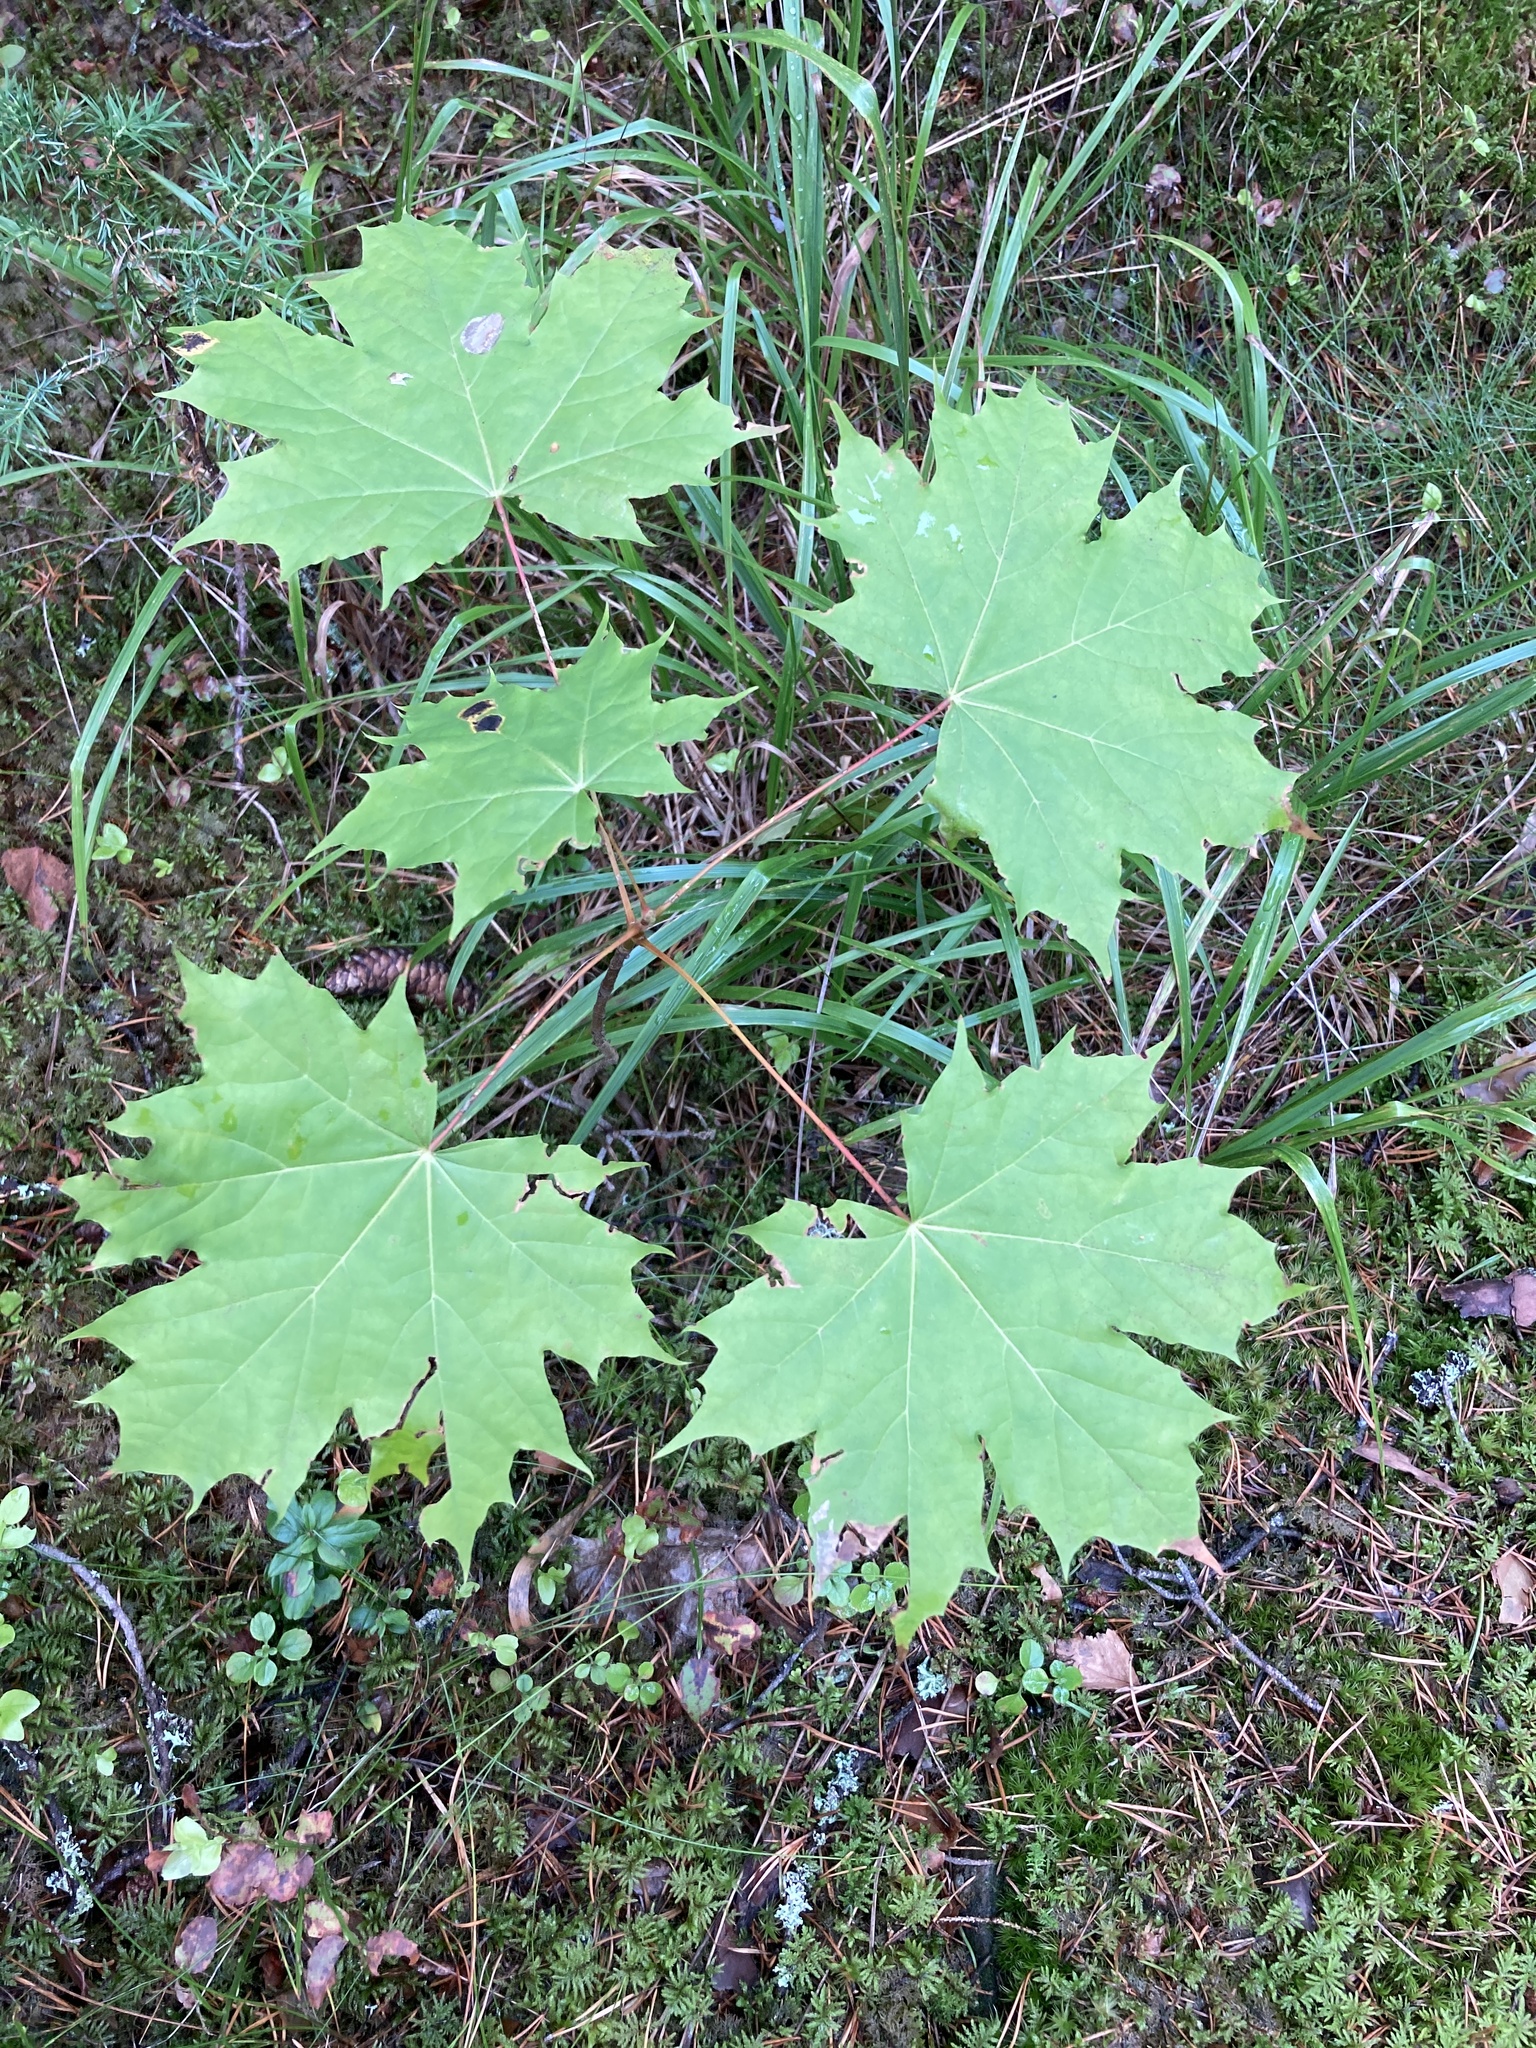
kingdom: Plantae
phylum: Tracheophyta
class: Magnoliopsida
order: Sapindales
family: Sapindaceae
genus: Acer
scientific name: Acer platanoides
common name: Norway maple
